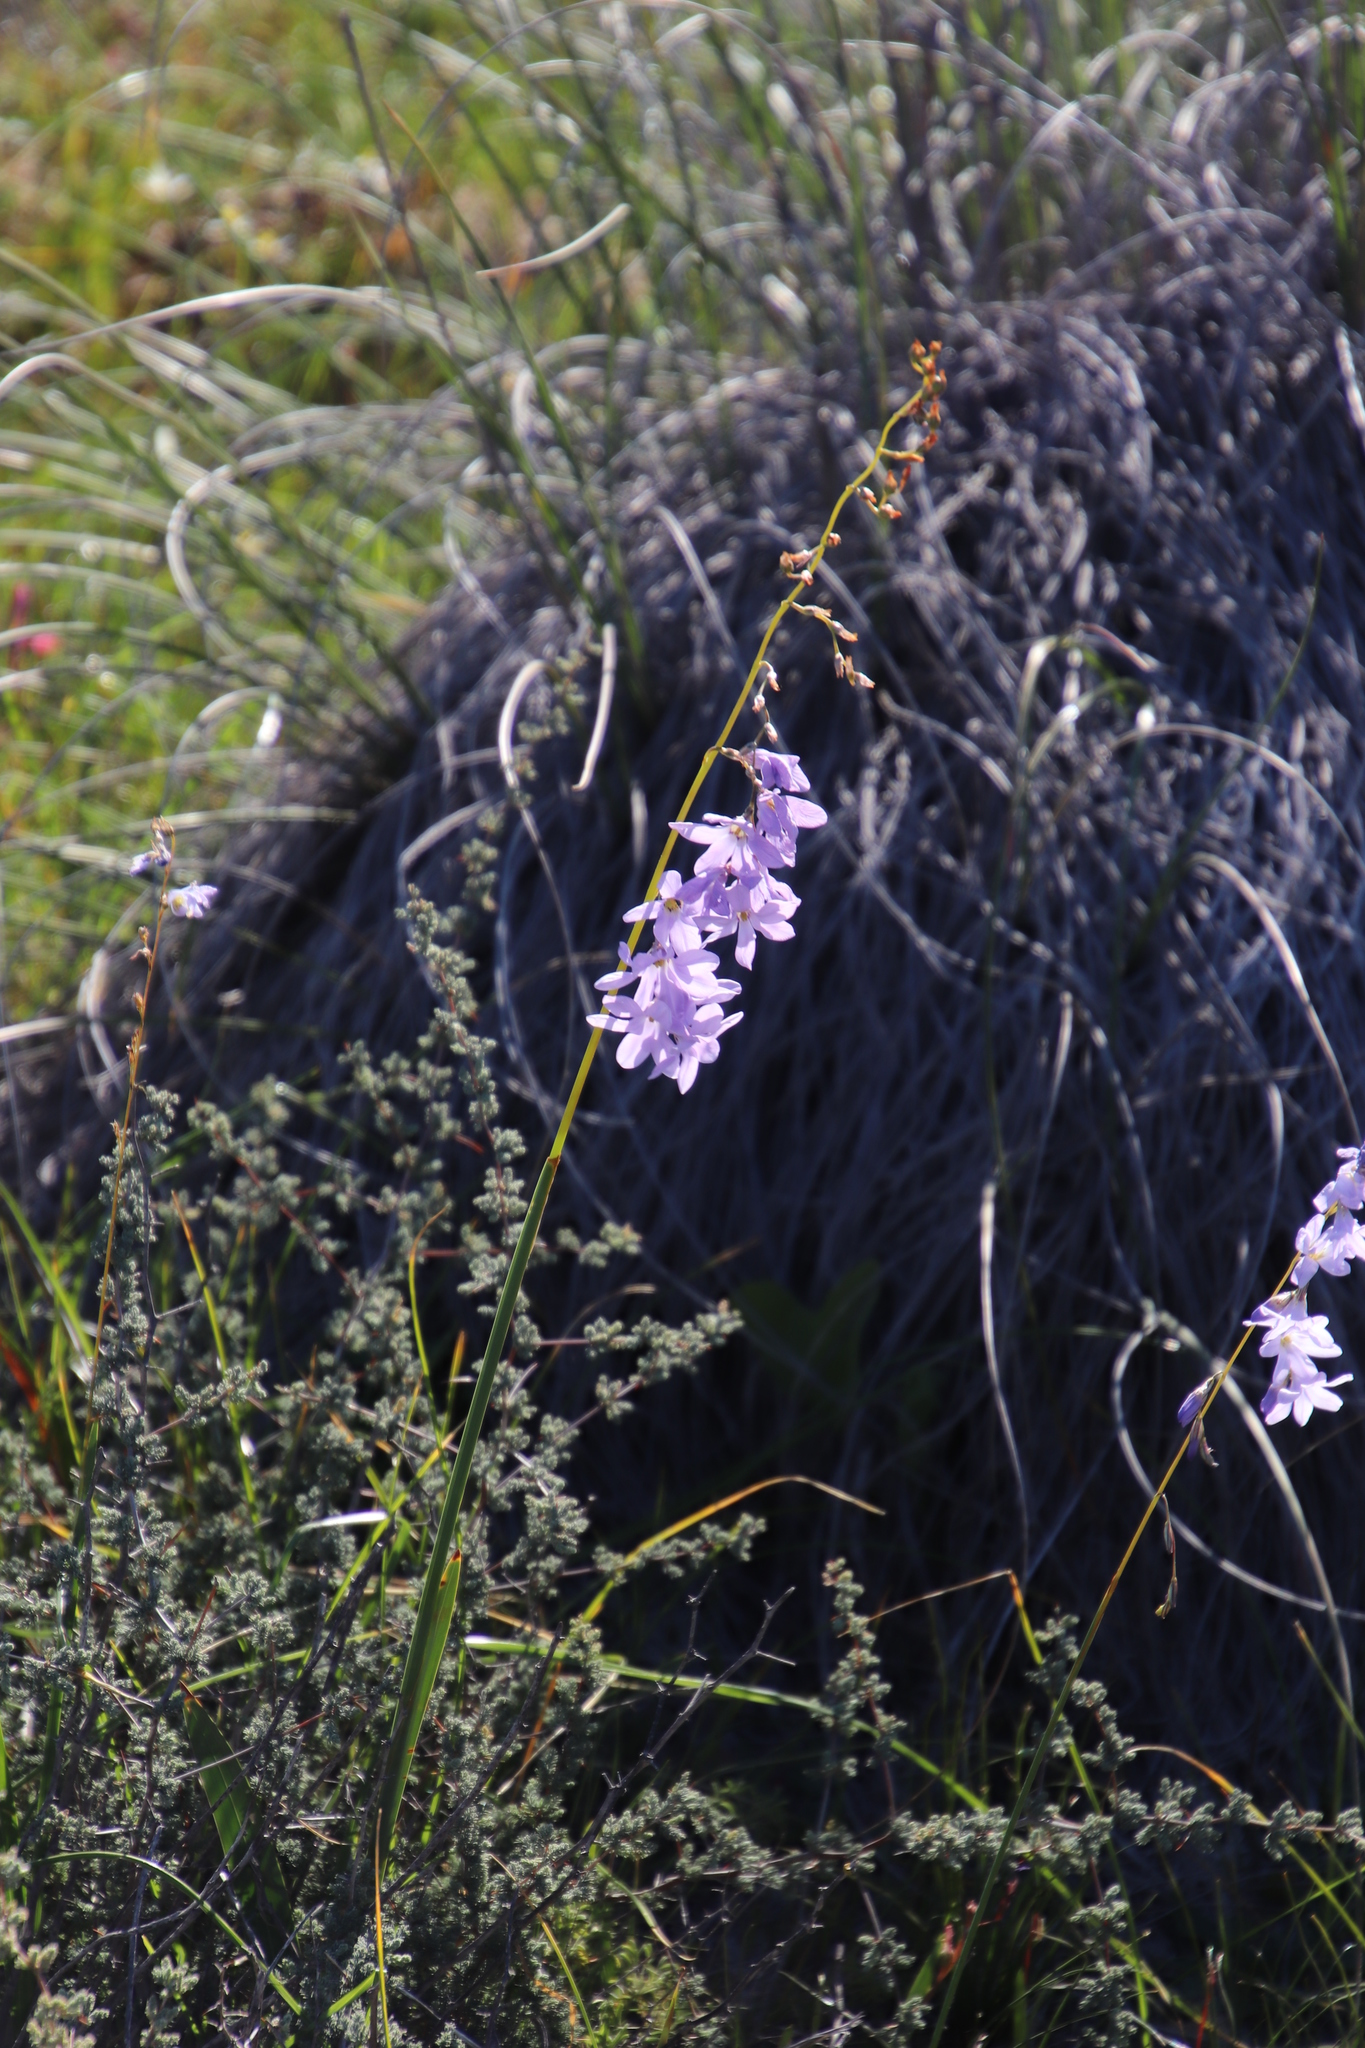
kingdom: Plantae
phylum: Tracheophyta
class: Liliopsida
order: Asparagales
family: Iridaceae
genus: Ixia
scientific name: Ixia rapunculoides
